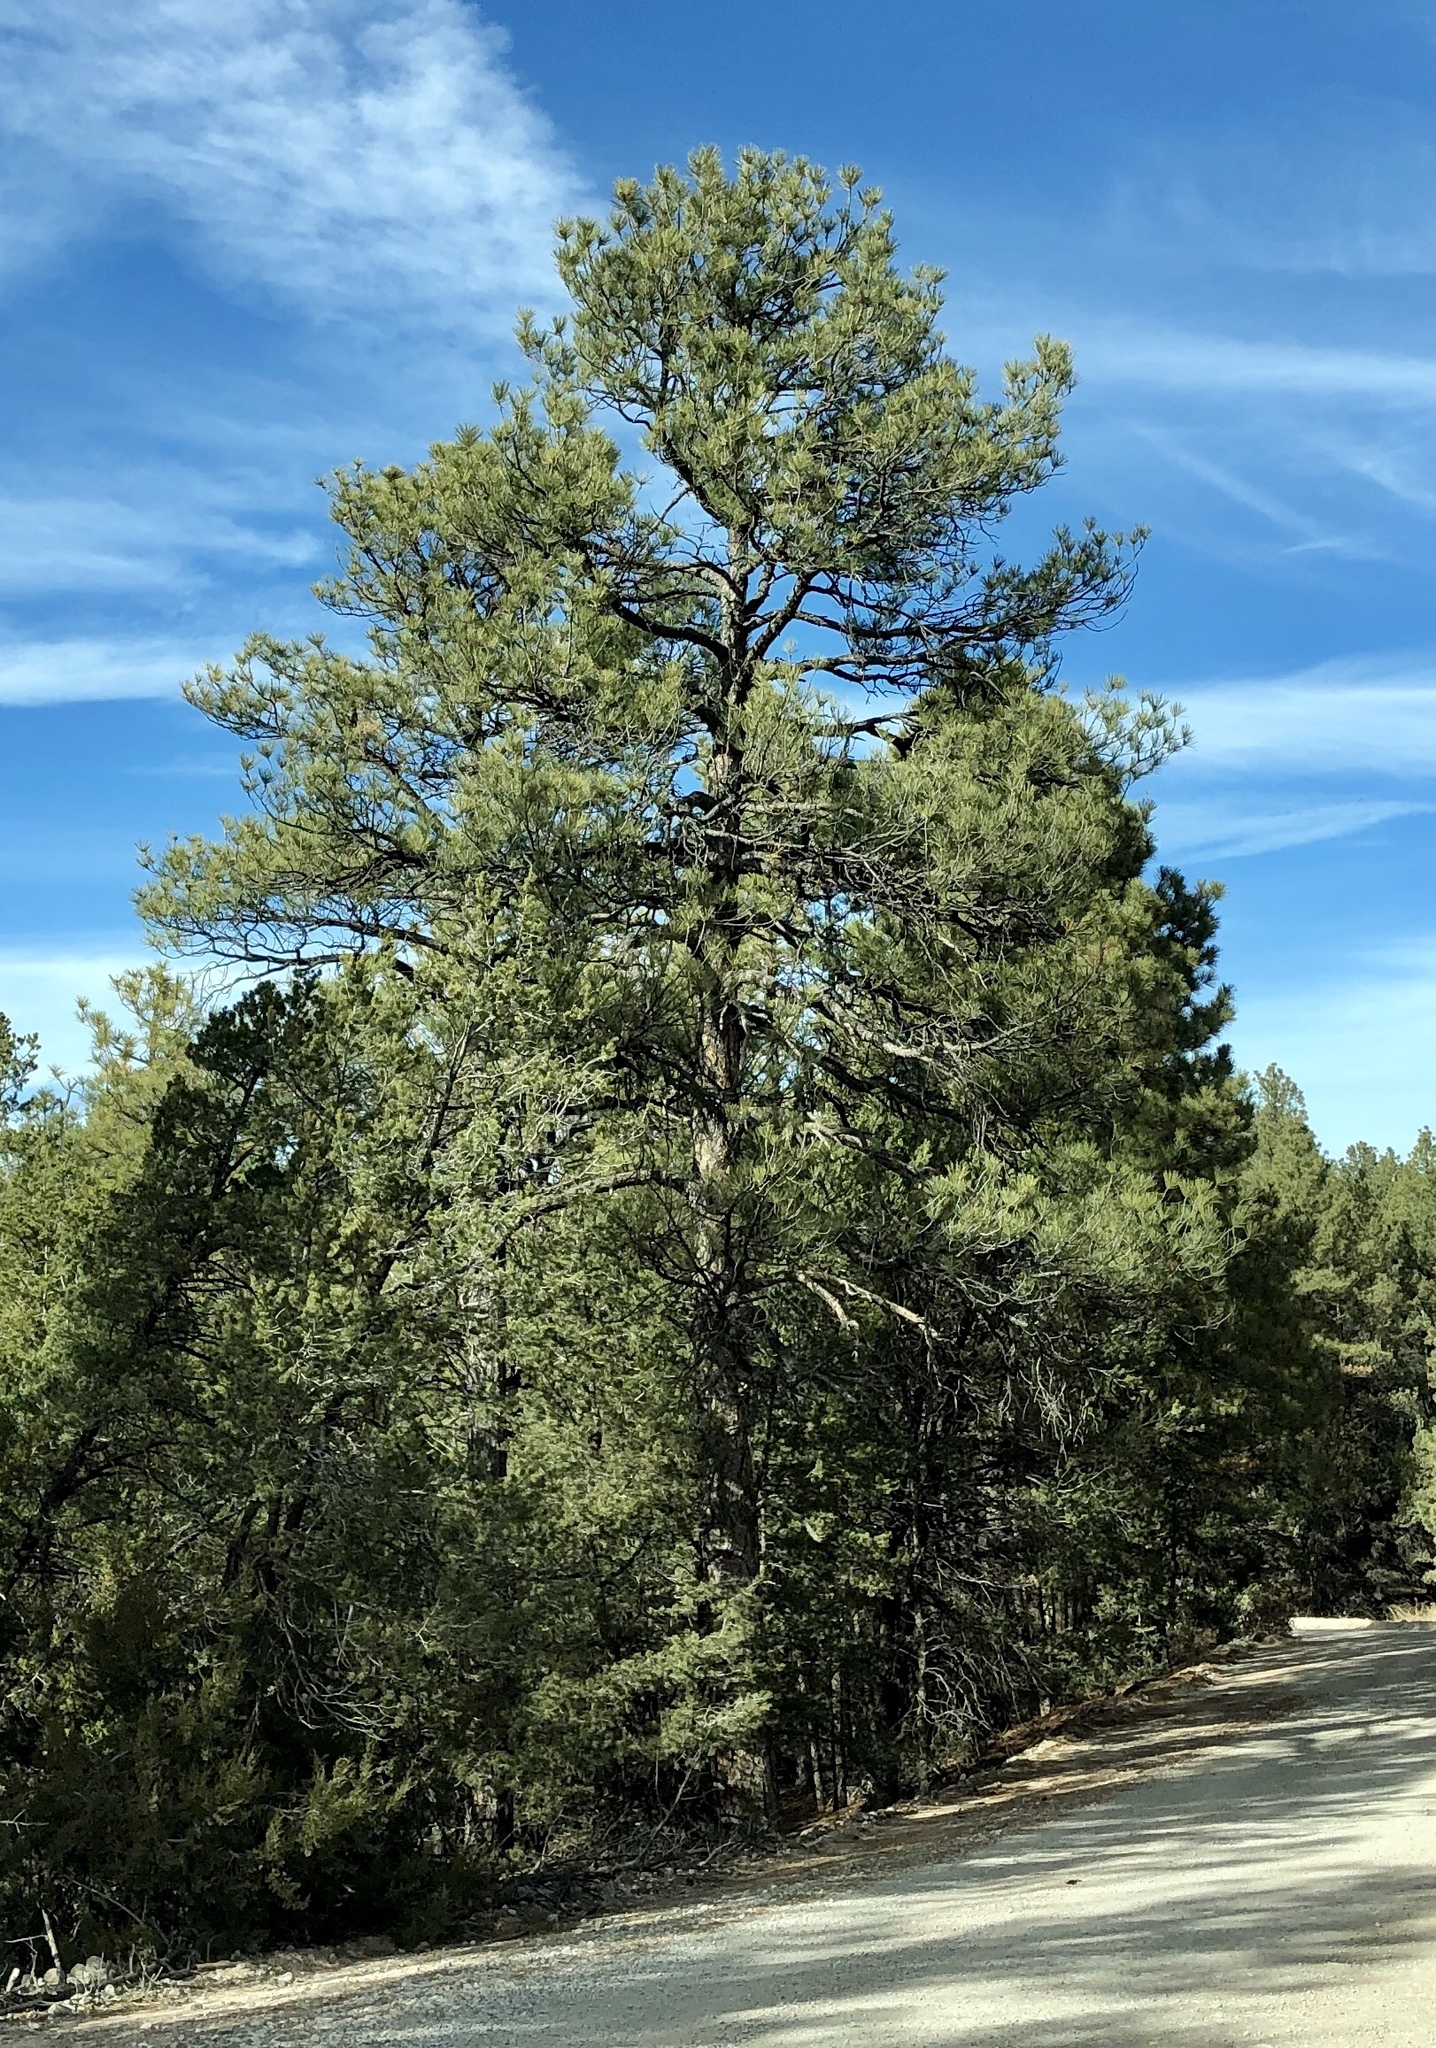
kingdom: Plantae
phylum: Tracheophyta
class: Pinopsida
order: Pinales
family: Pinaceae
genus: Pinus
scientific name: Pinus ponderosa
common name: Western yellow-pine
